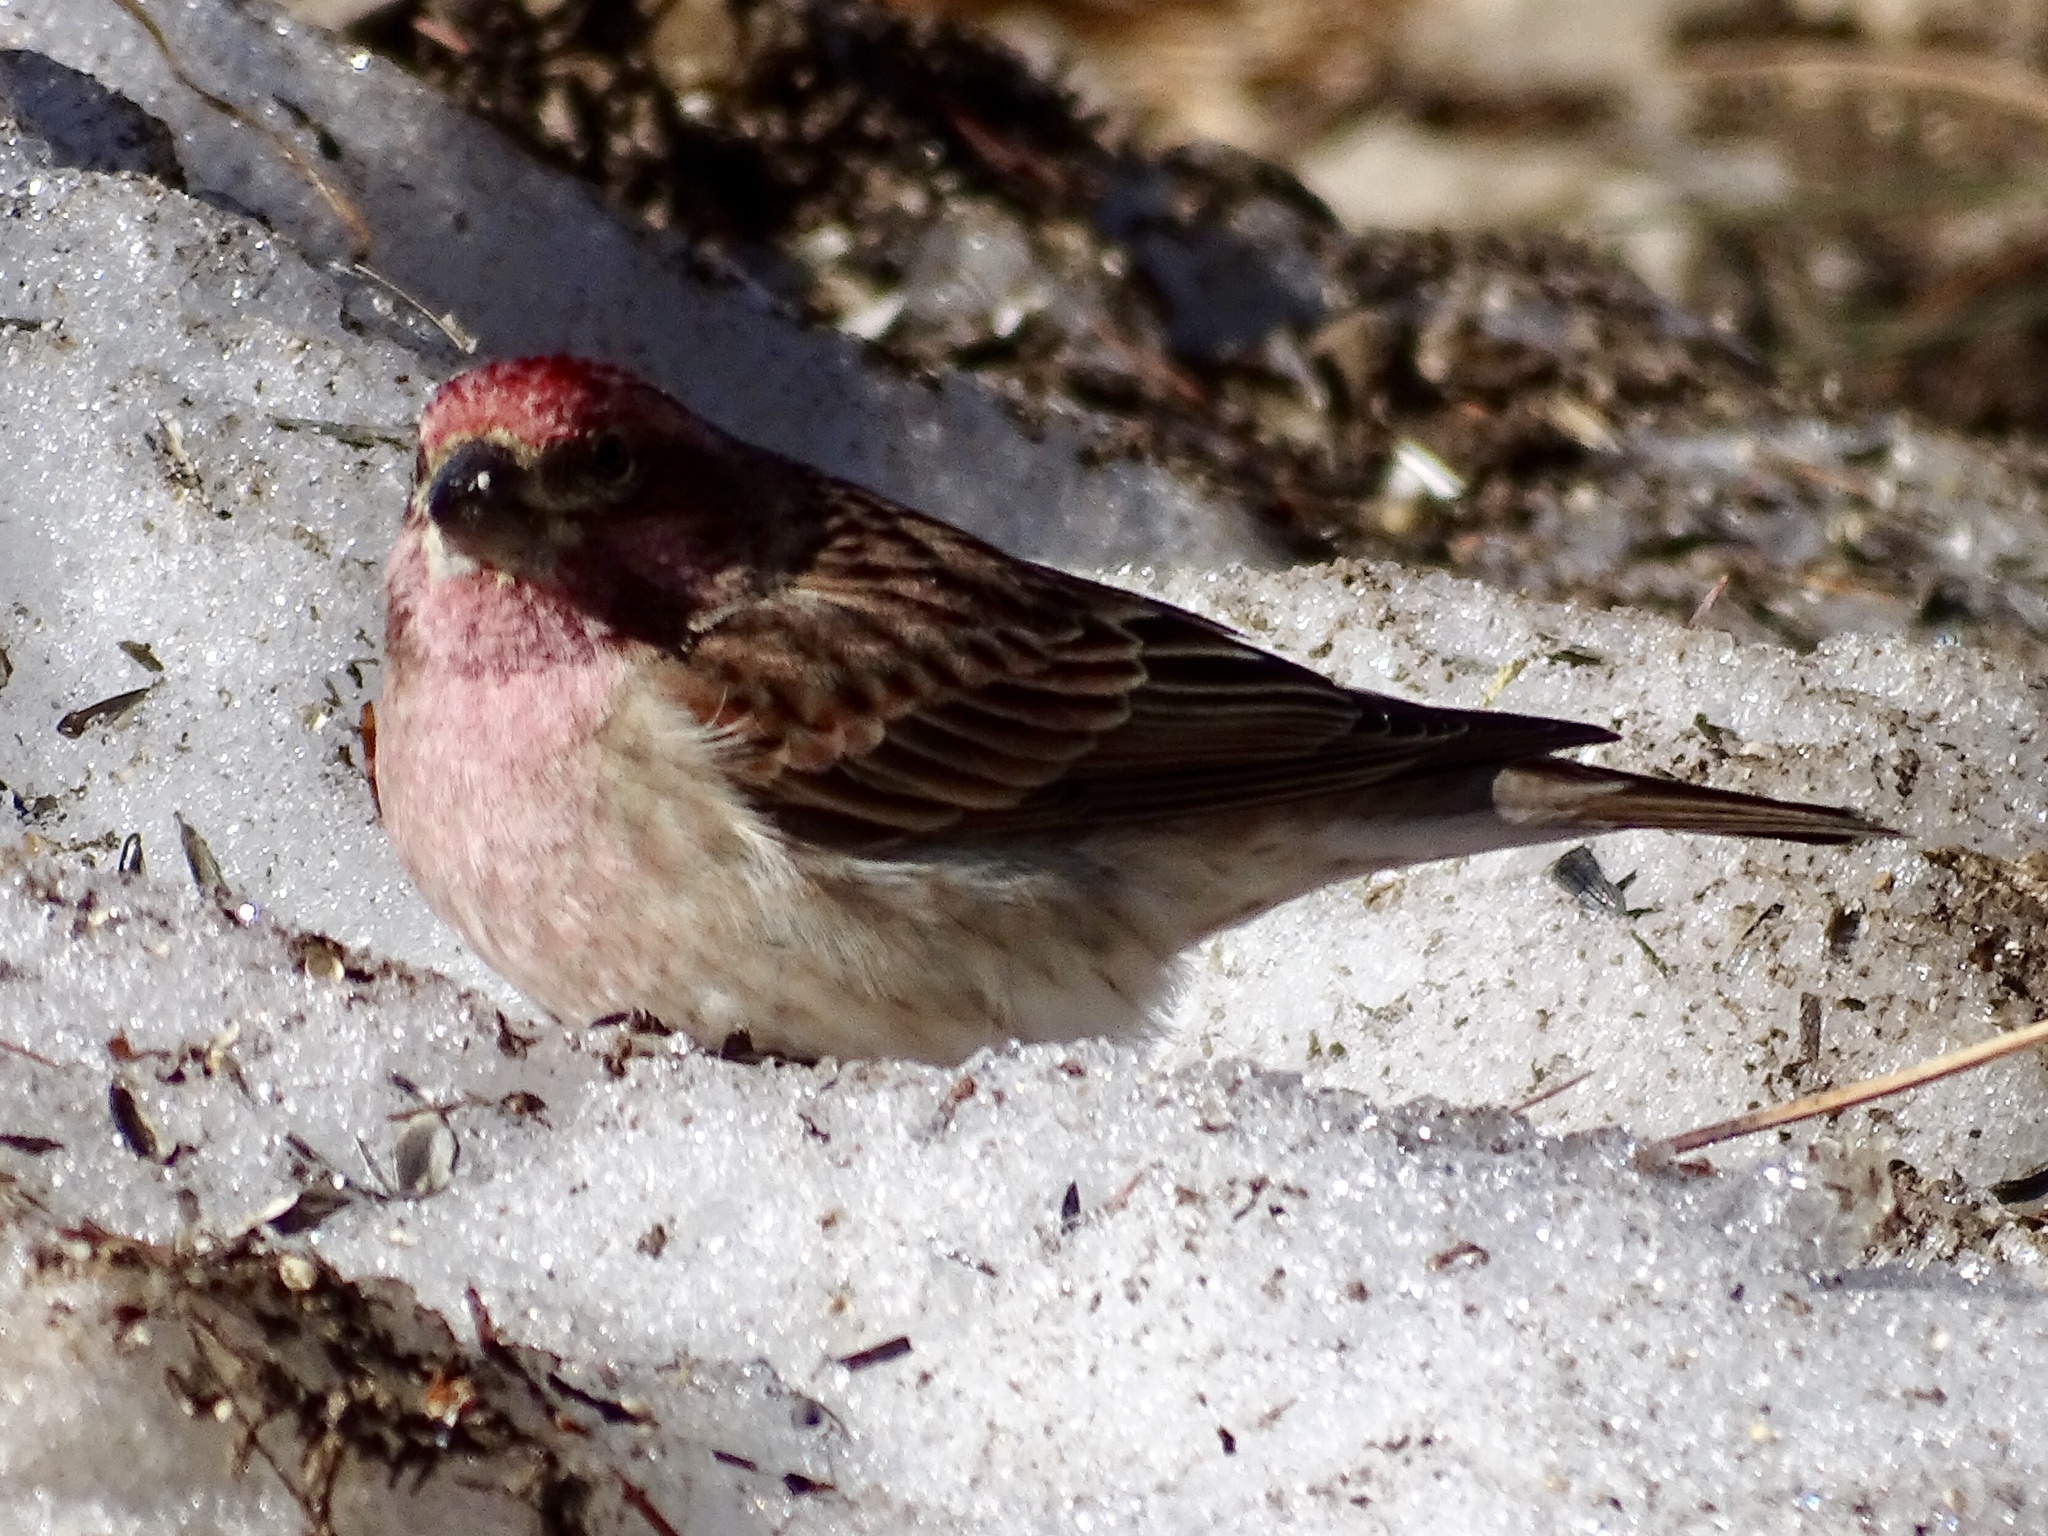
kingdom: Animalia
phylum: Chordata
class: Aves
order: Passeriformes
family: Fringillidae
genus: Haemorhous
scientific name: Haemorhous cassinii
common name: Cassin's finch
